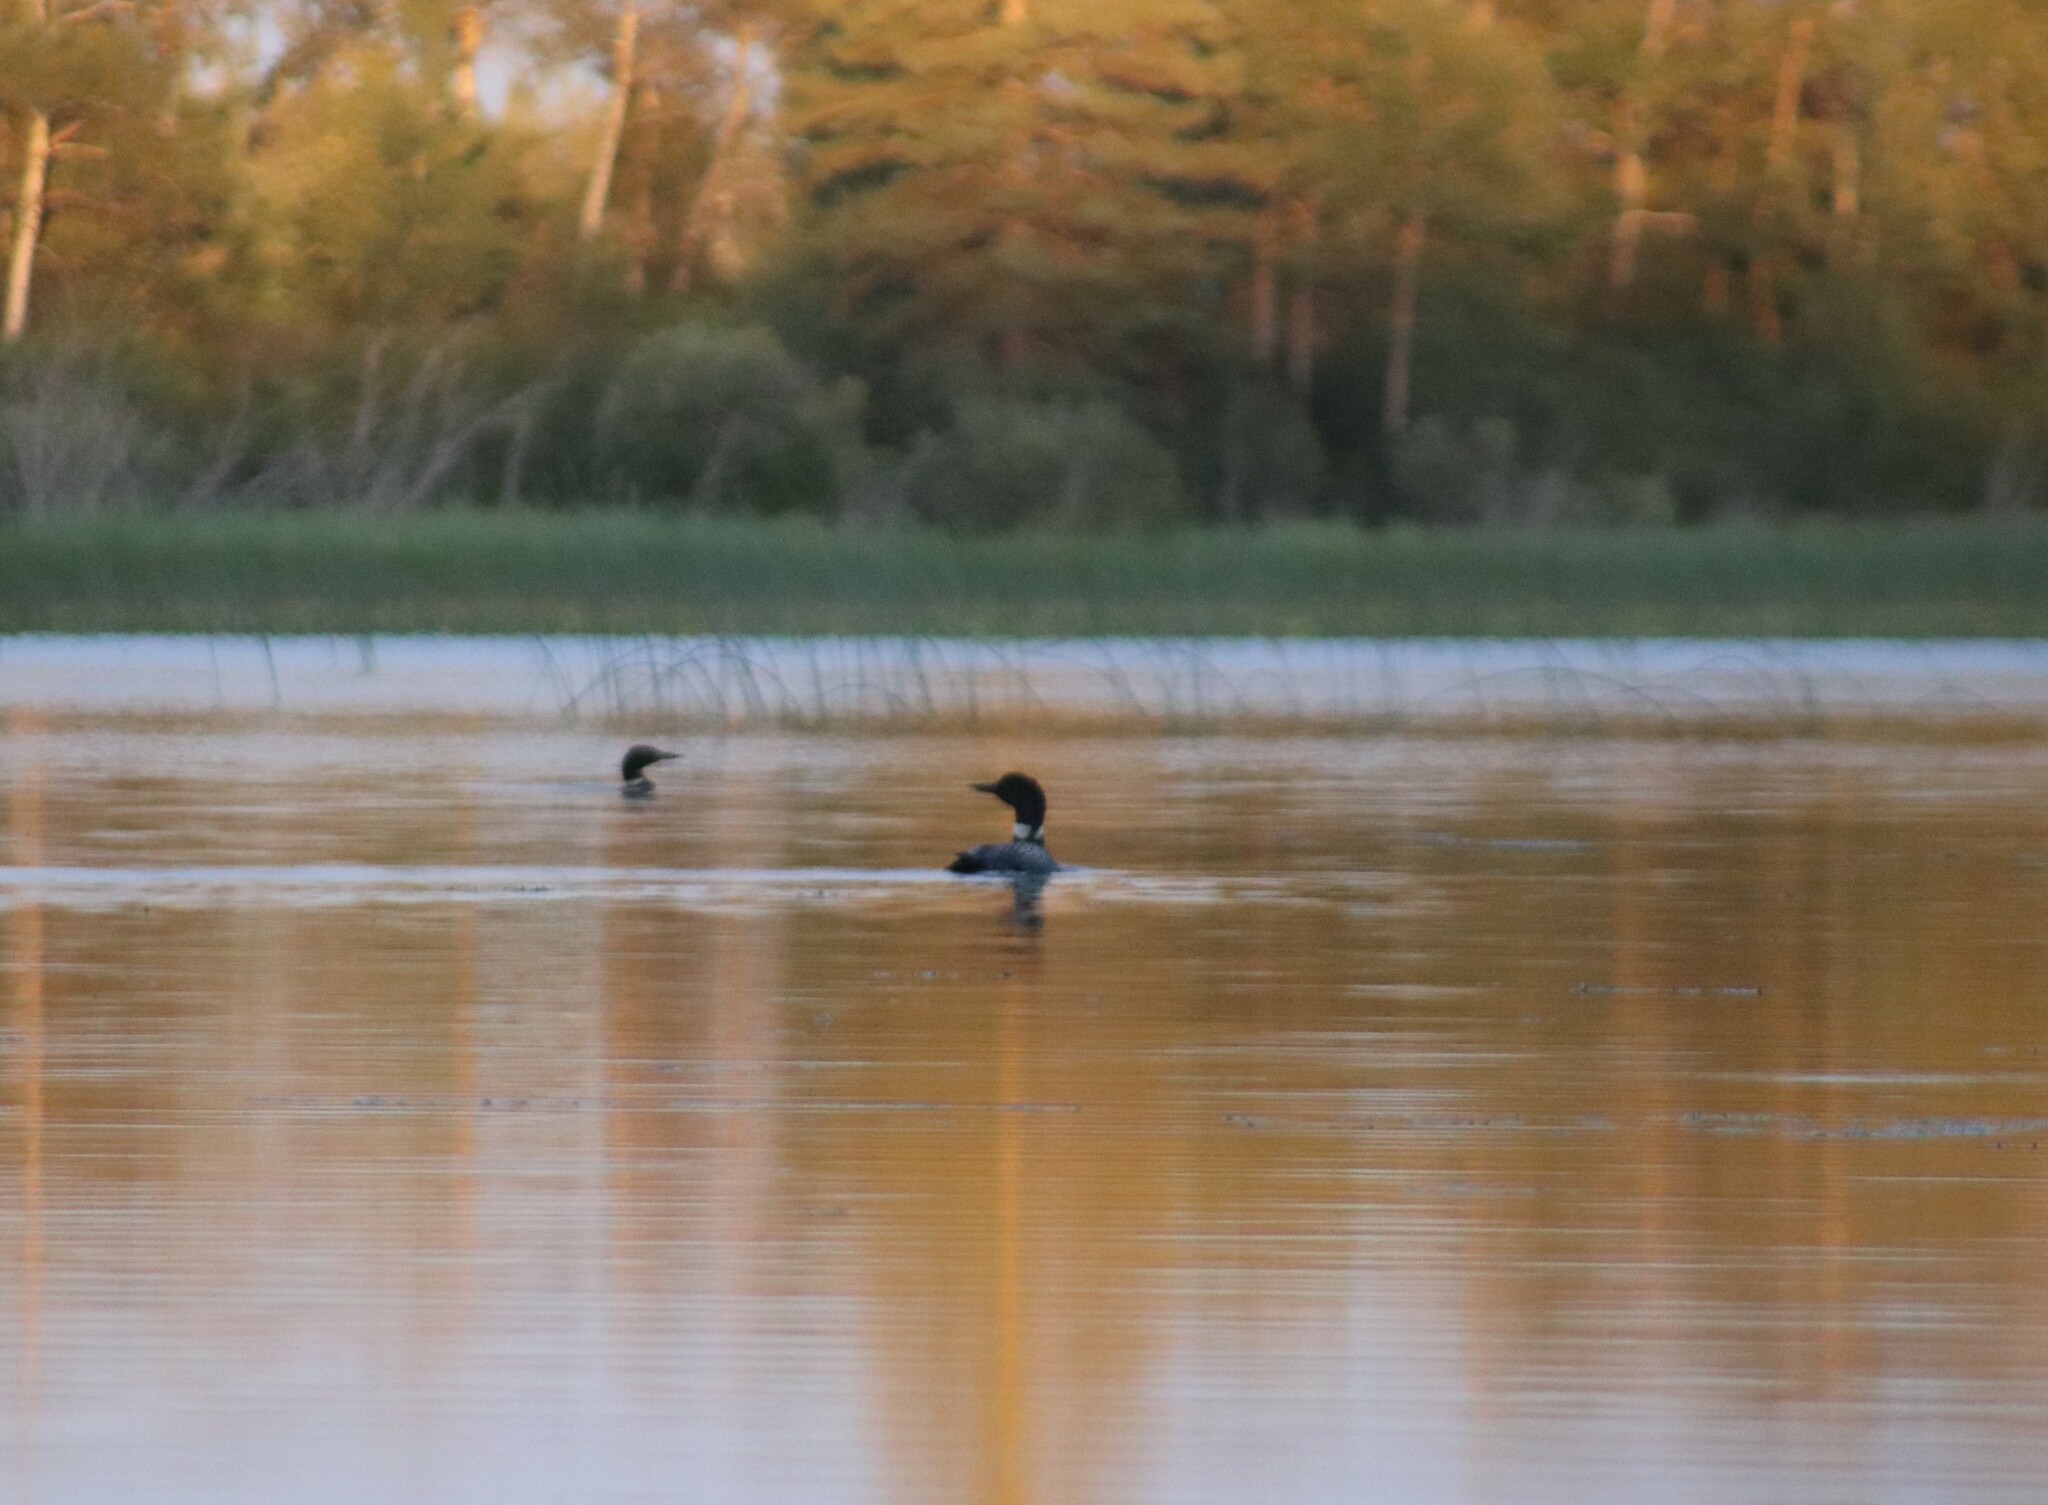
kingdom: Animalia
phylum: Chordata
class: Aves
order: Gaviiformes
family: Gaviidae
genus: Gavia
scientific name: Gavia immer
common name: Common loon
